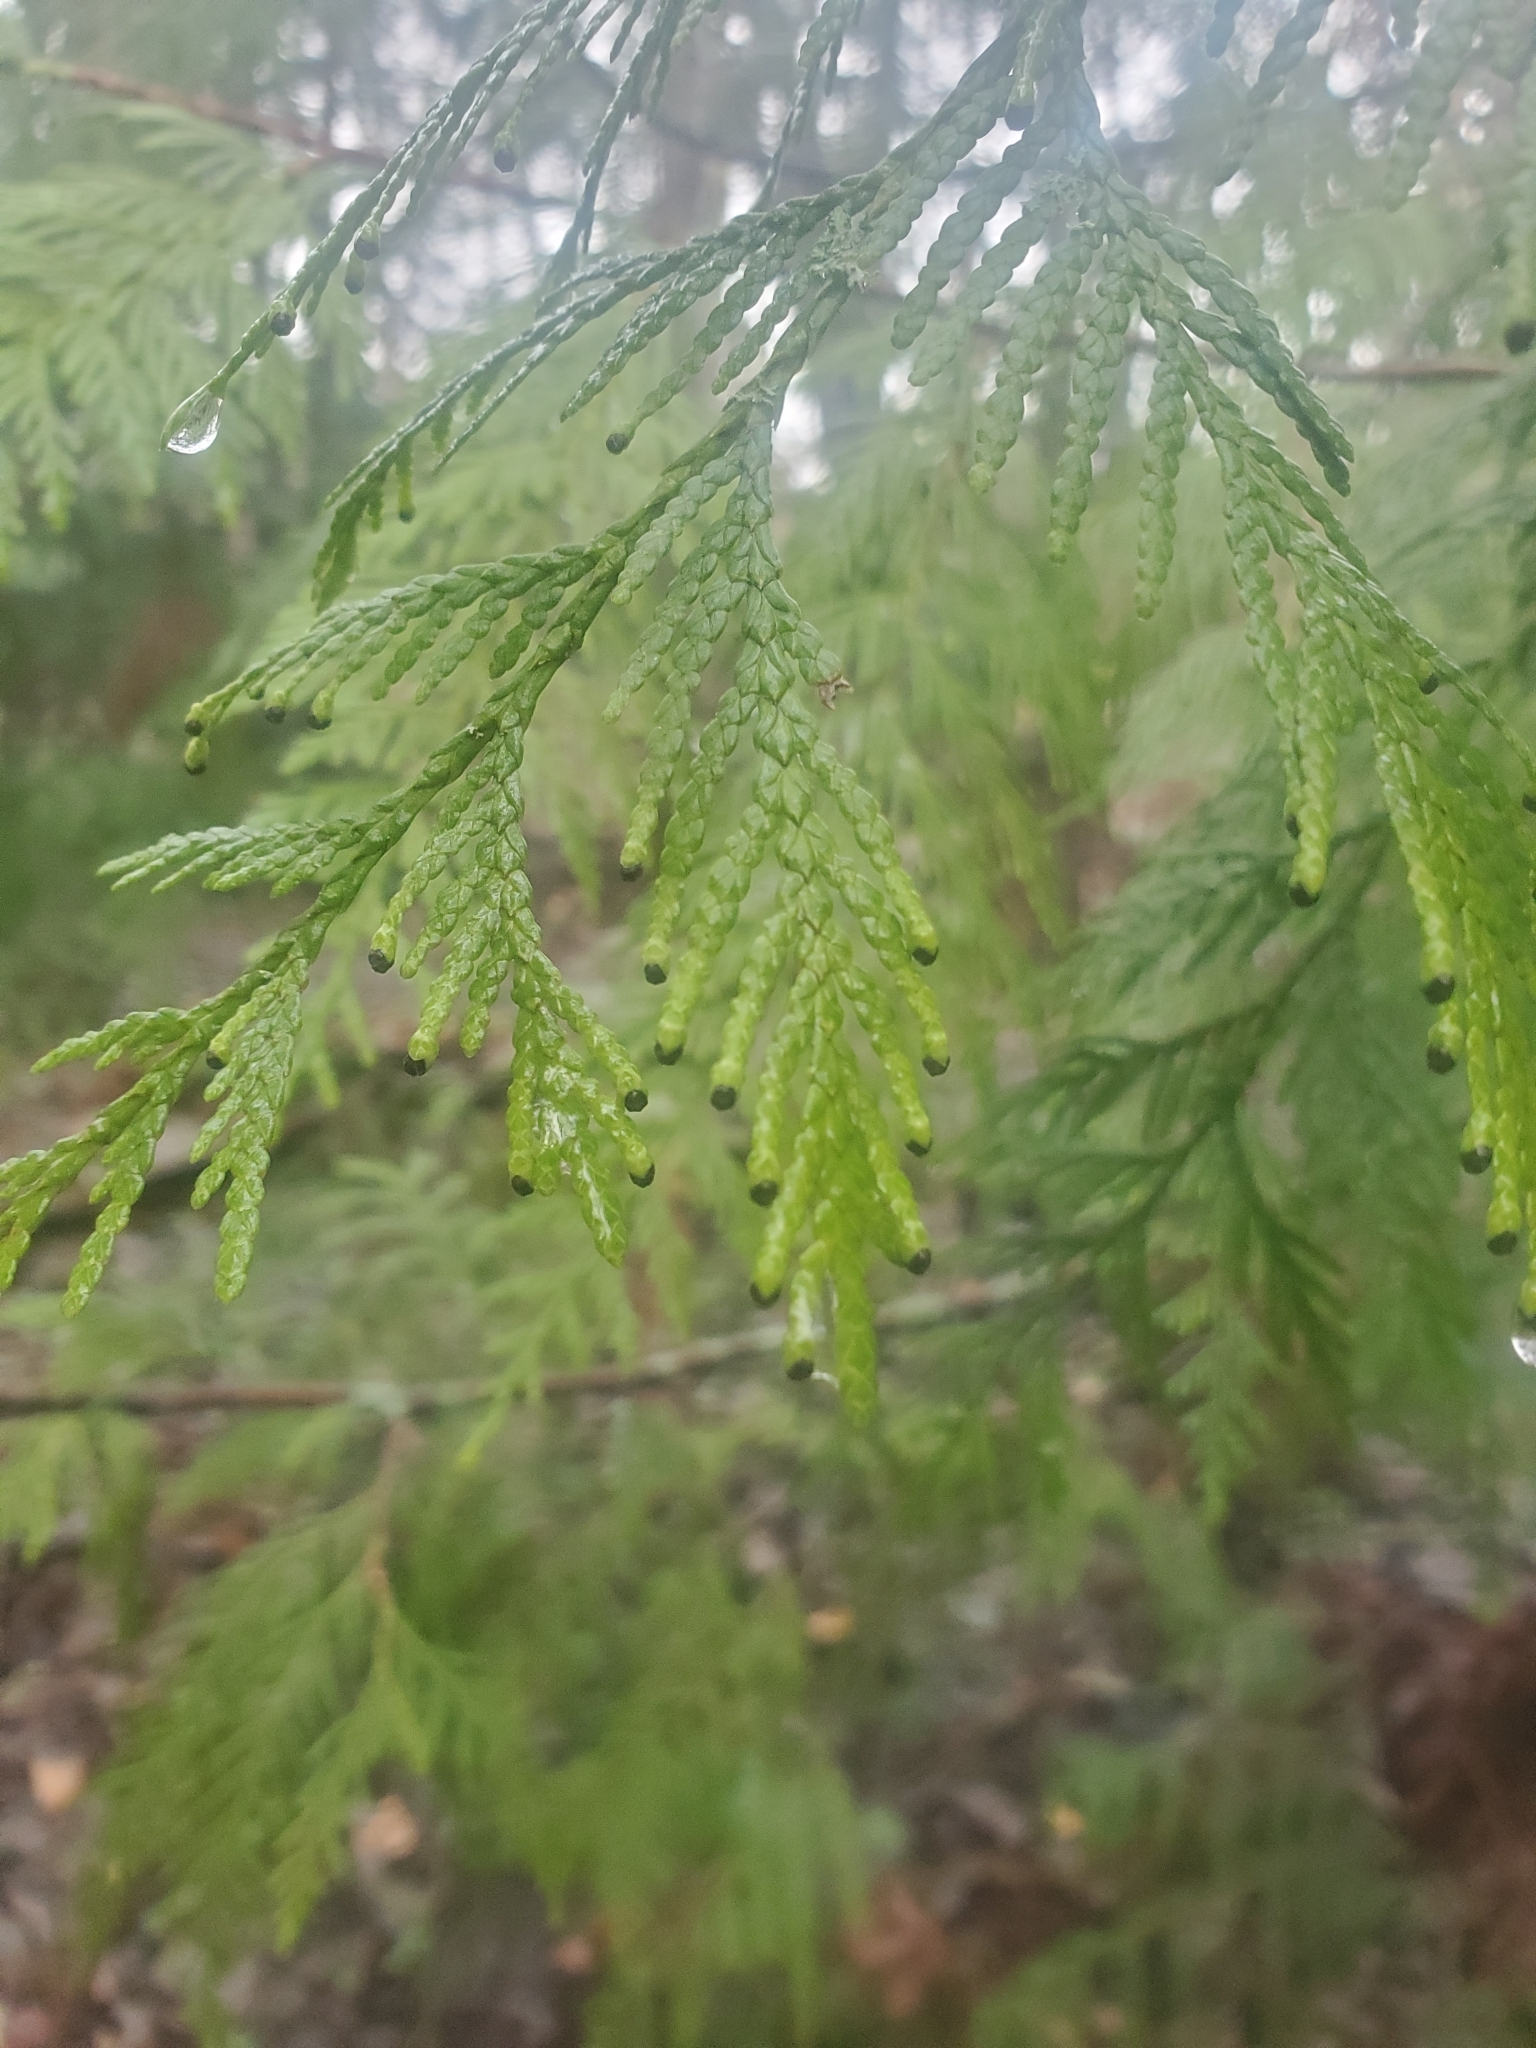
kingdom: Plantae
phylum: Tracheophyta
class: Pinopsida
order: Pinales
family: Cupressaceae
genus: Thuja
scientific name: Thuja plicata
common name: Western red-cedar
